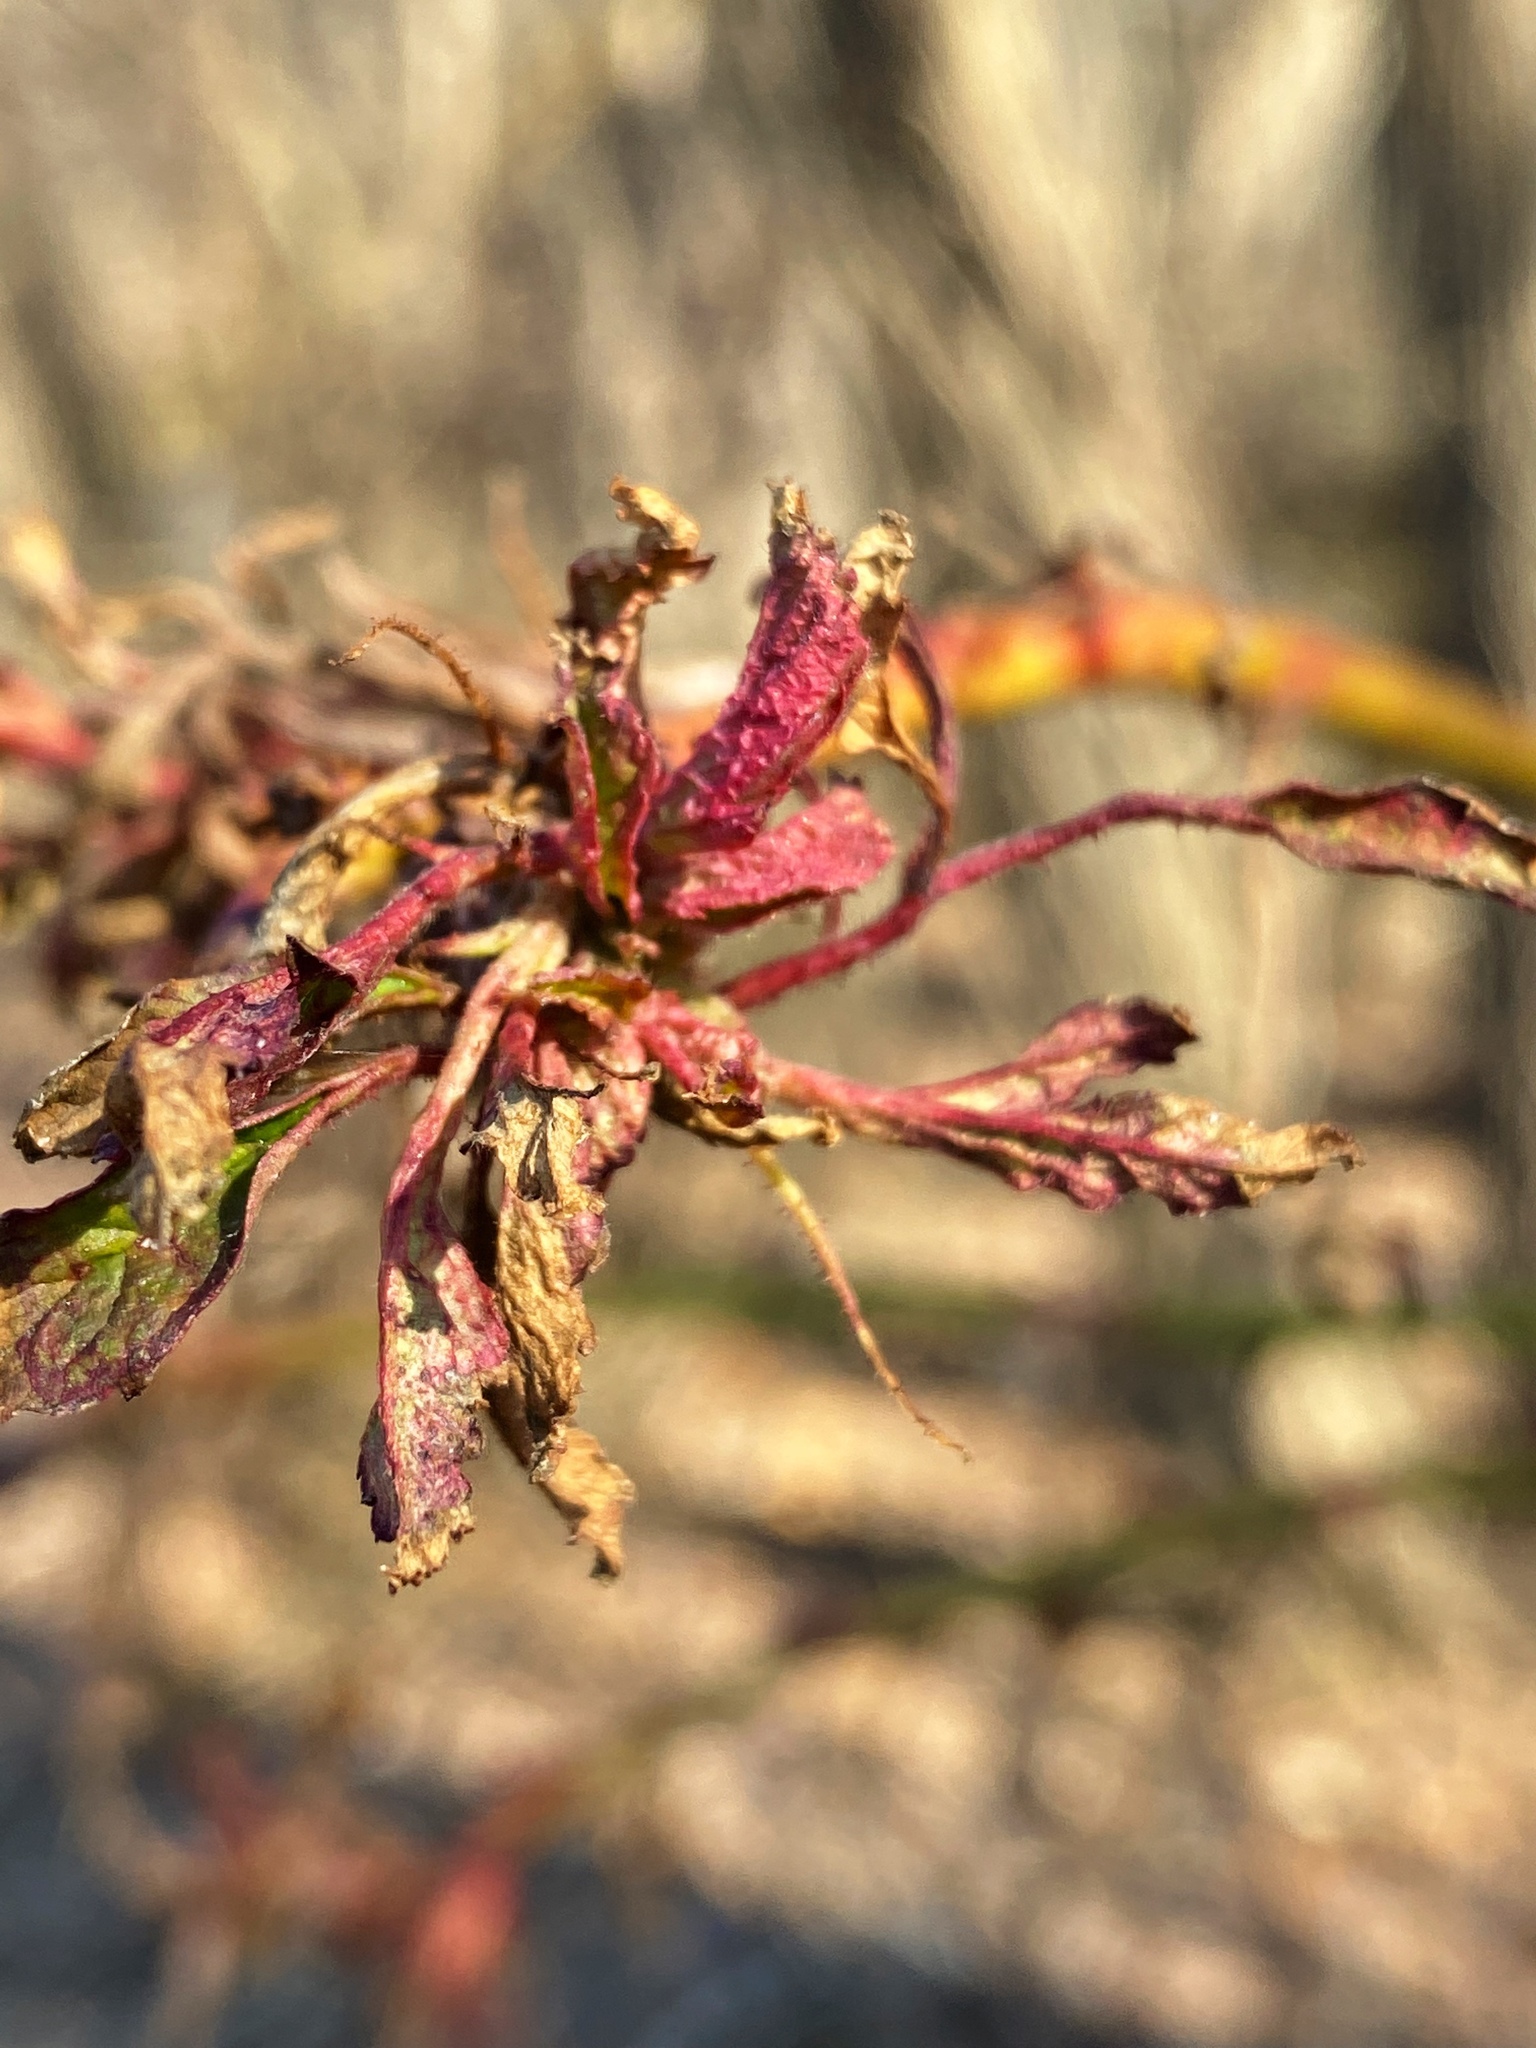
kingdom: Viruses
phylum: Negarnaviricota
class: Ellioviricetes
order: Bunyavirales
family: Fimoviridae
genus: Emaravirus
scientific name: Emaravirus rosae
